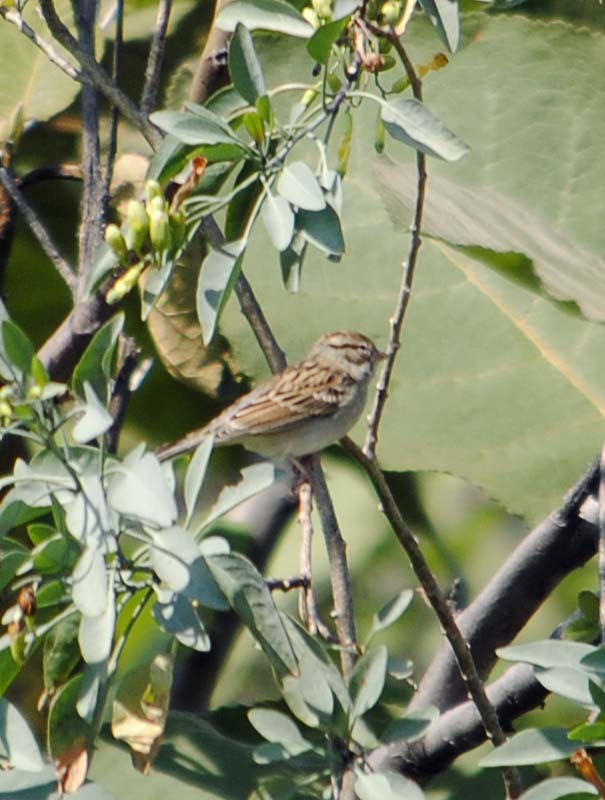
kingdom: Animalia
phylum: Chordata
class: Aves
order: Passeriformes
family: Passerellidae
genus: Spizella
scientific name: Spizella passerina
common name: Chipping sparrow
